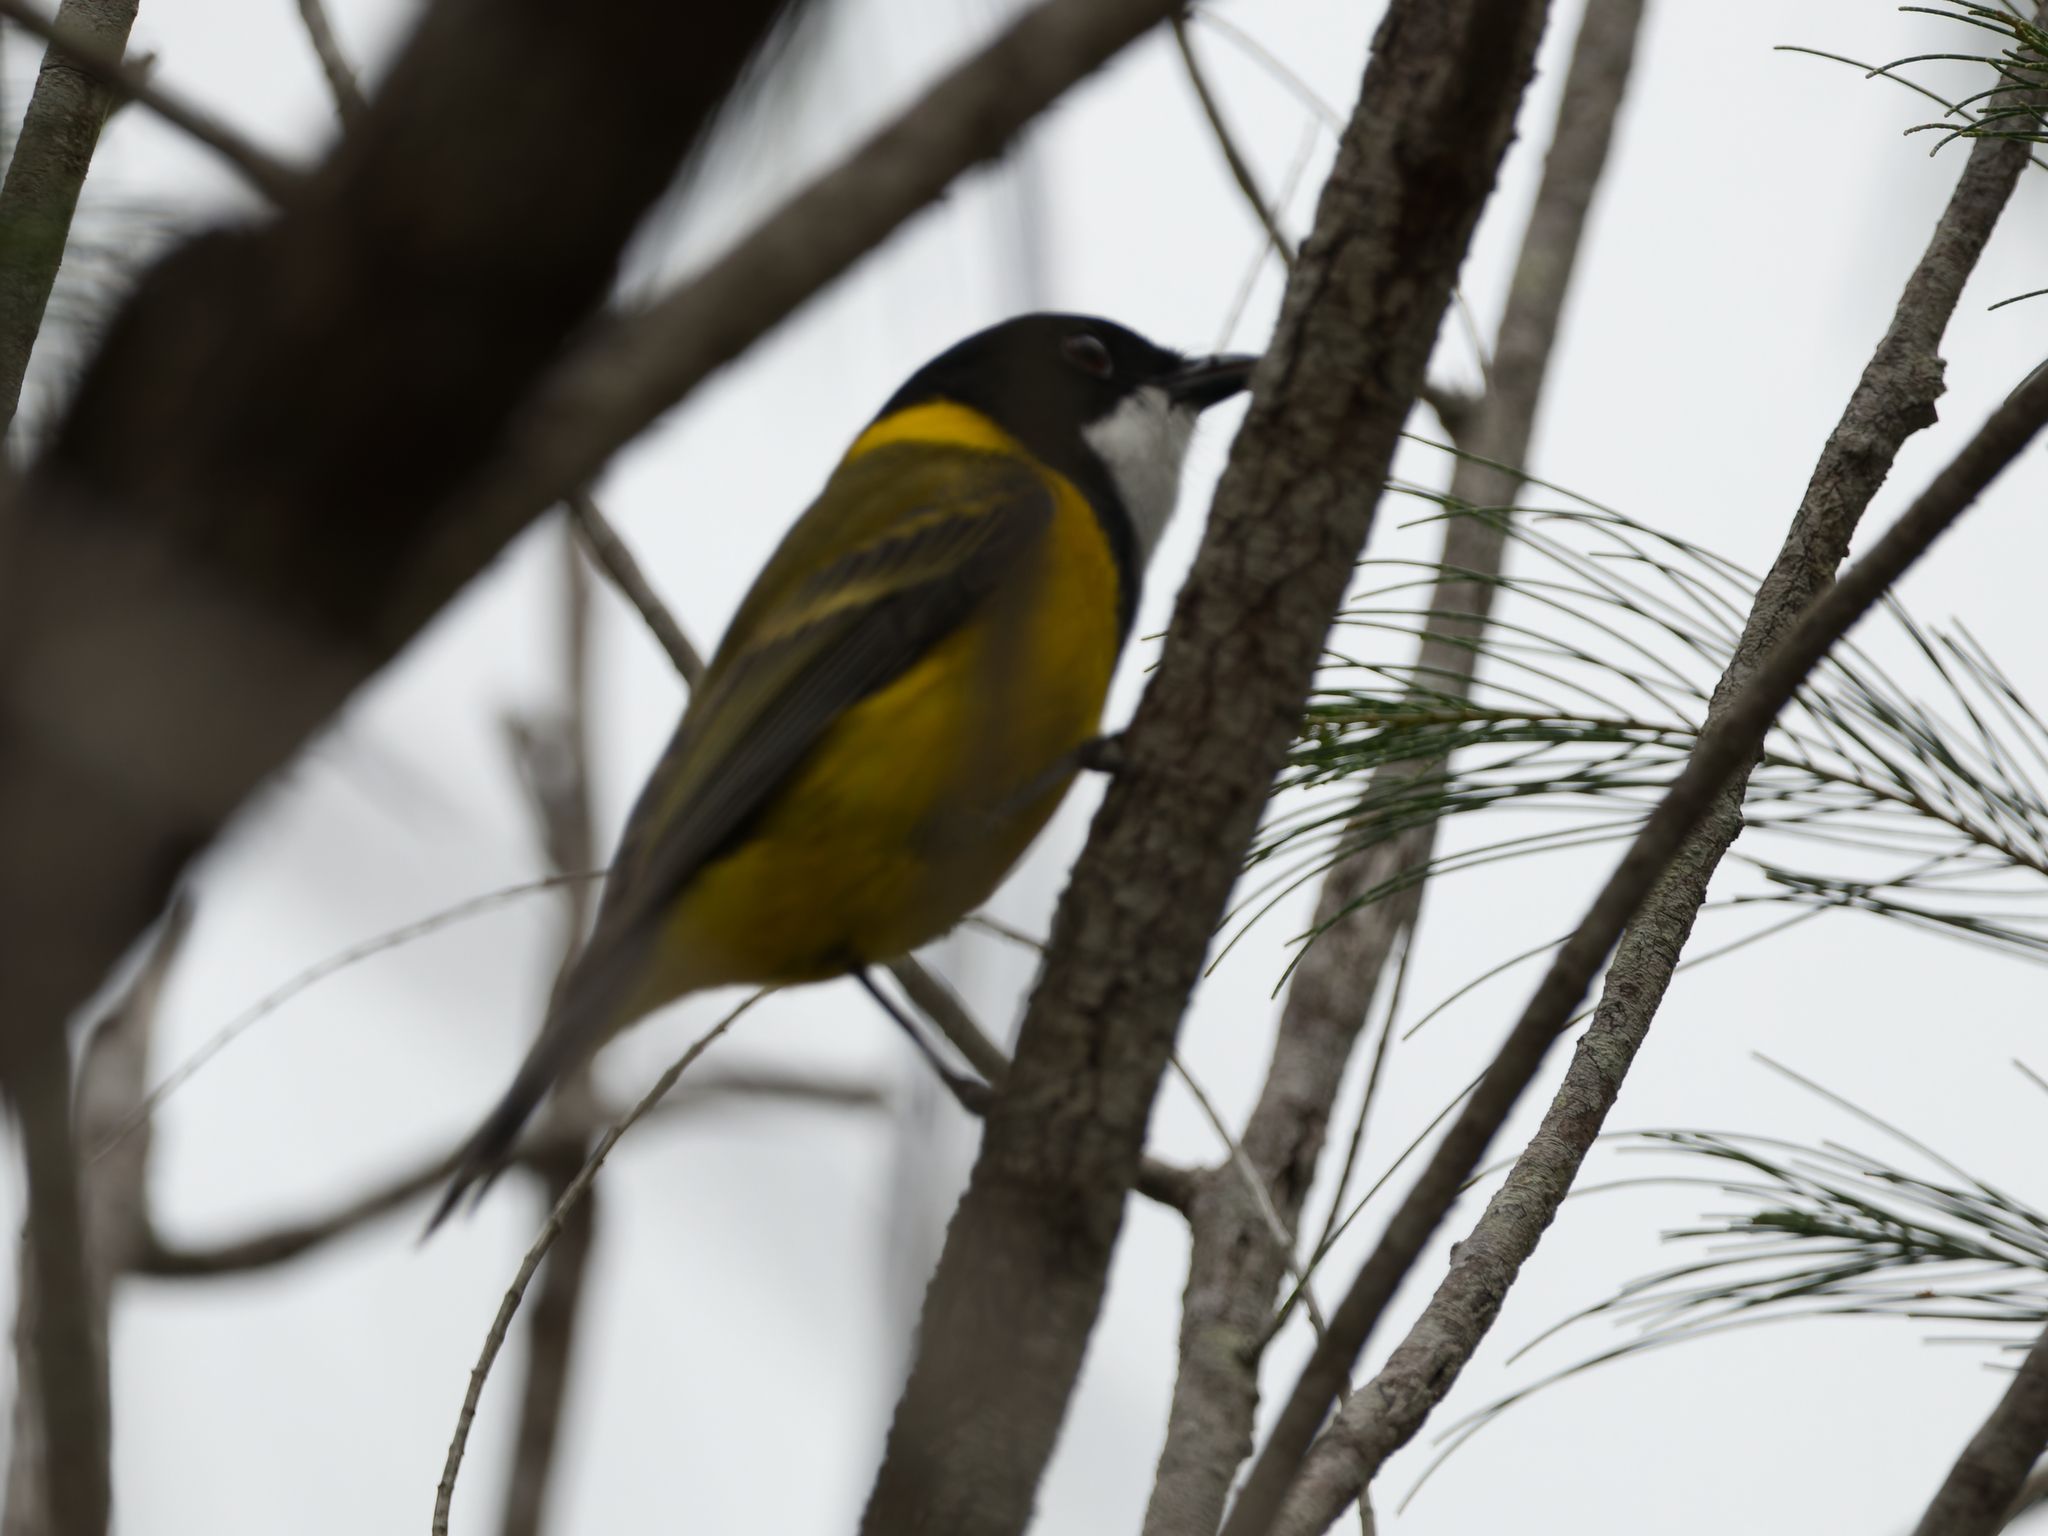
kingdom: Animalia
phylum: Chordata
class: Aves
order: Passeriformes
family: Pachycephalidae
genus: Pachycephala
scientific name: Pachycephala pectoralis
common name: Australian golden whistler
